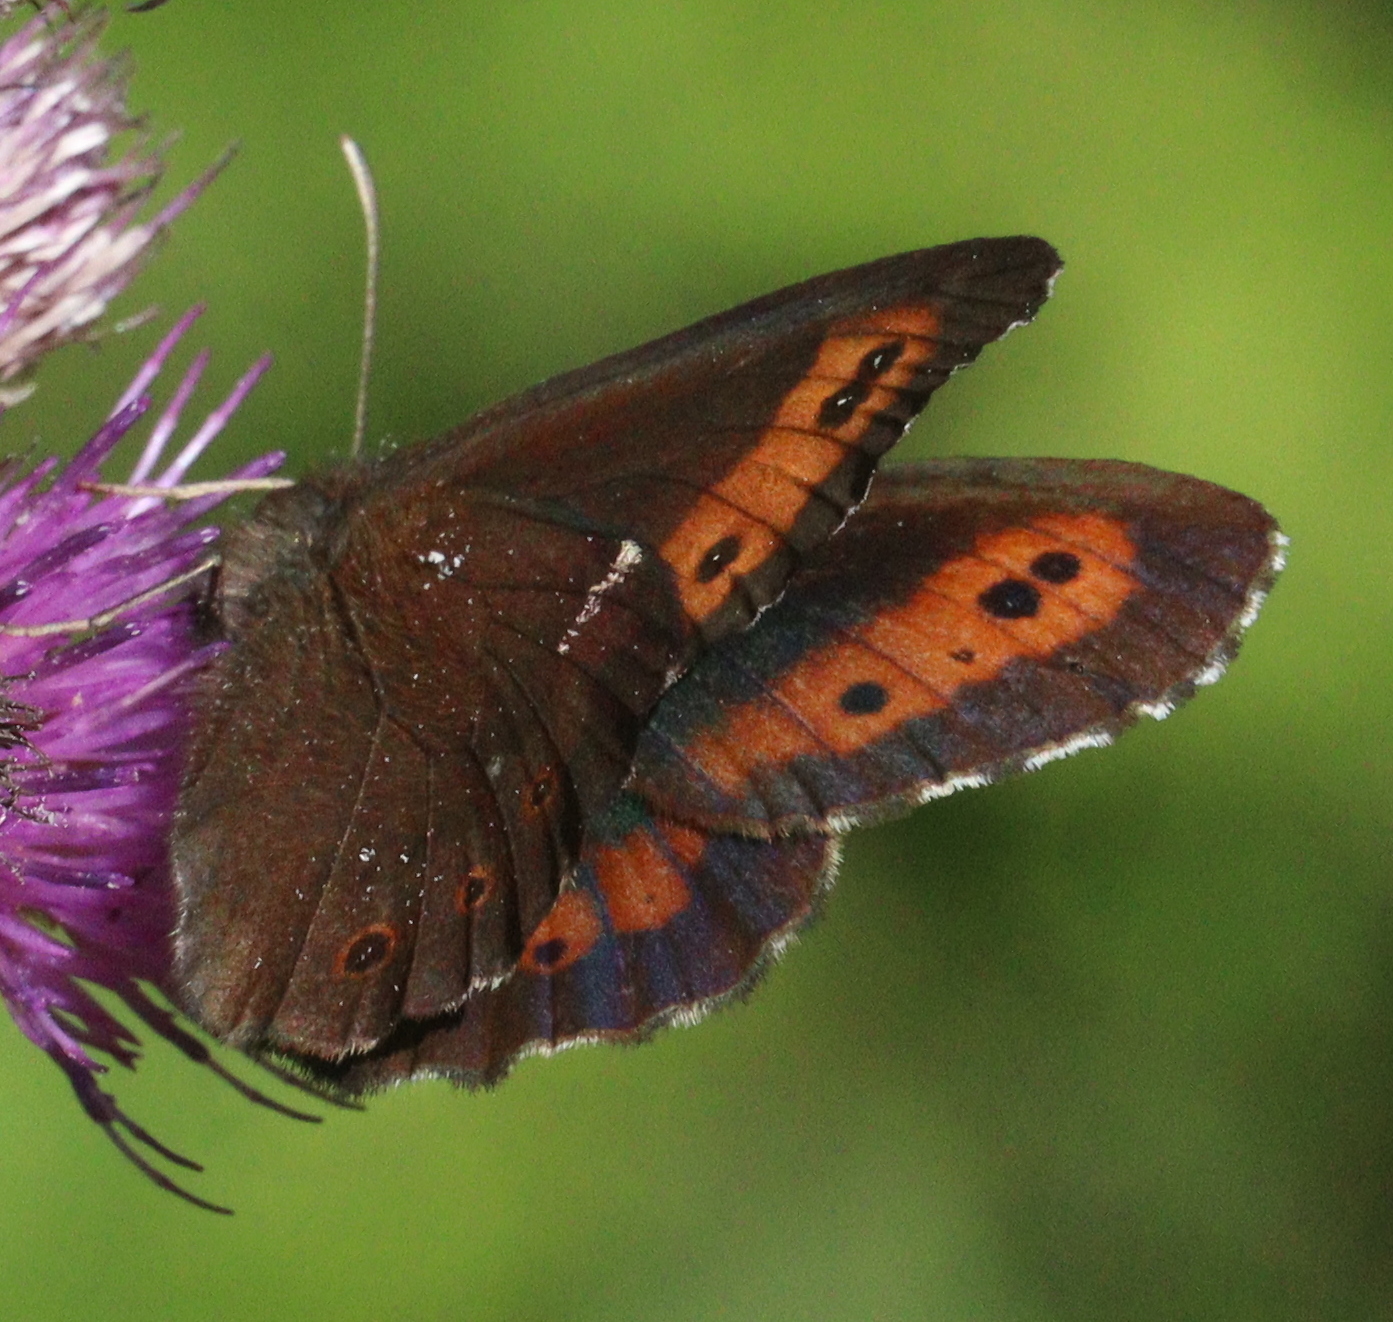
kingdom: Animalia
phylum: Arthropoda
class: Insecta
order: Lepidoptera
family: Nymphalidae
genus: Erebia
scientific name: Erebia ligea
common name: Arran brown
